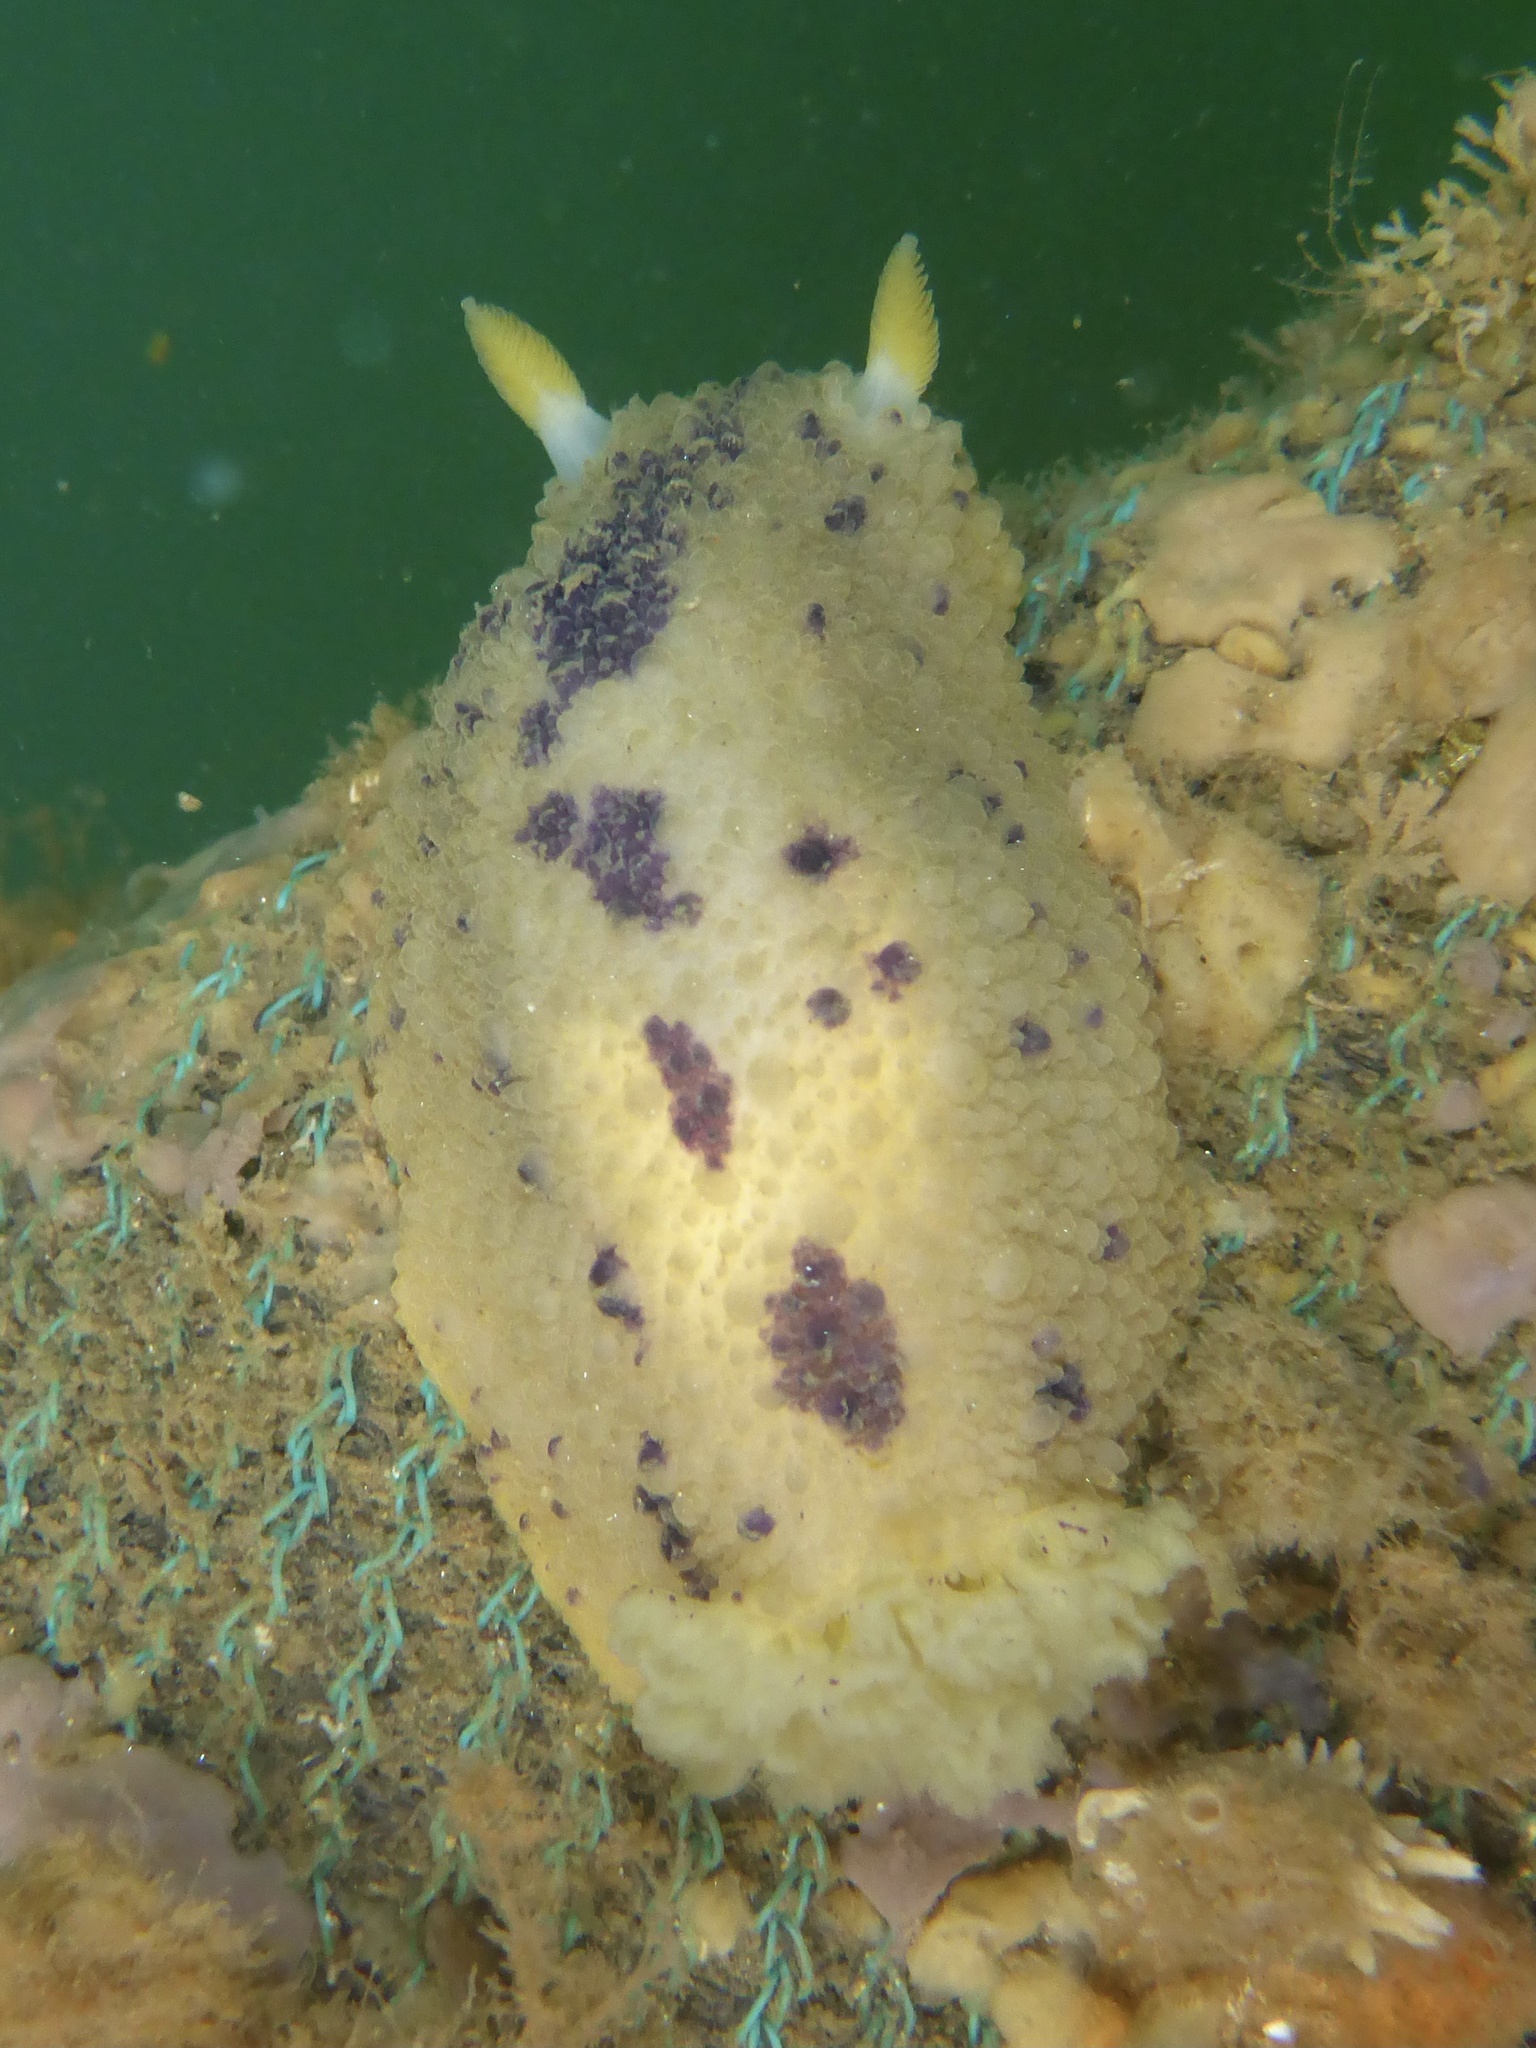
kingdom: Animalia
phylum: Mollusca
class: Gastropoda
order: Nudibranchia
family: Dorididae
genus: Doris
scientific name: Doris montereyensis
